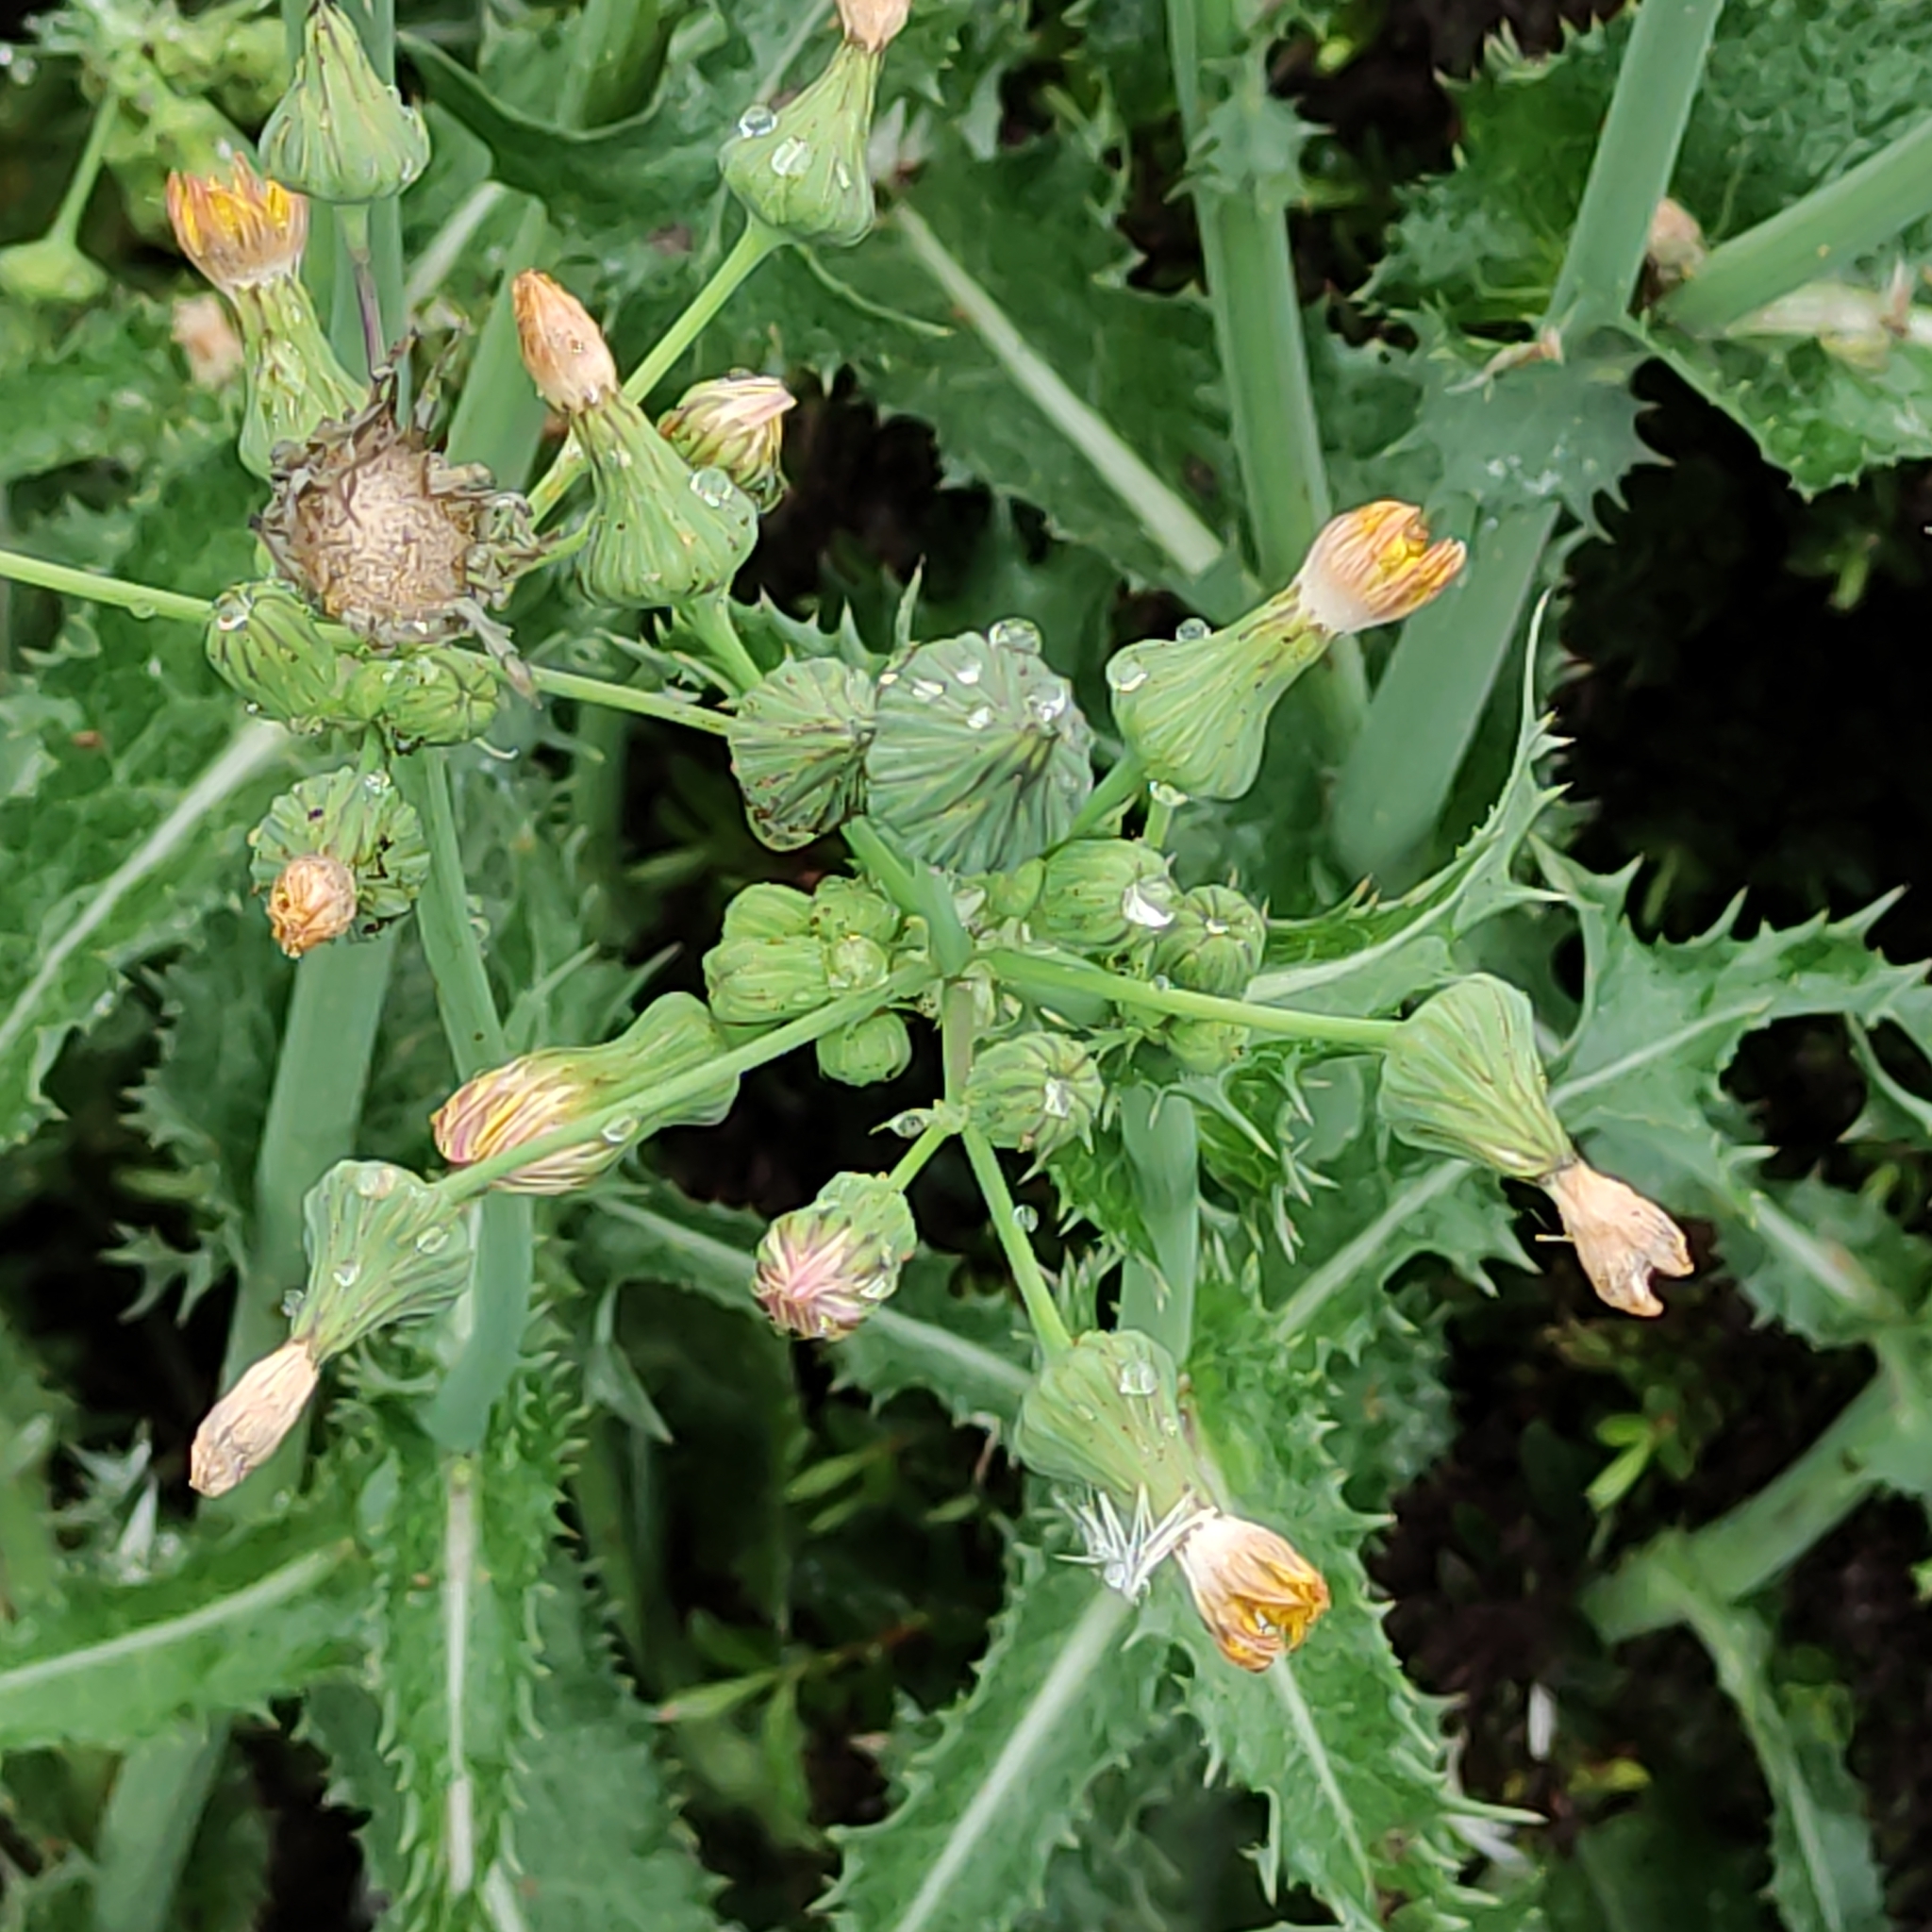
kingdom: Plantae
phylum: Tracheophyta
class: Magnoliopsida
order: Asterales
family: Asteraceae
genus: Sonchus
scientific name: Sonchus asper
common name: Prickly sow-thistle
